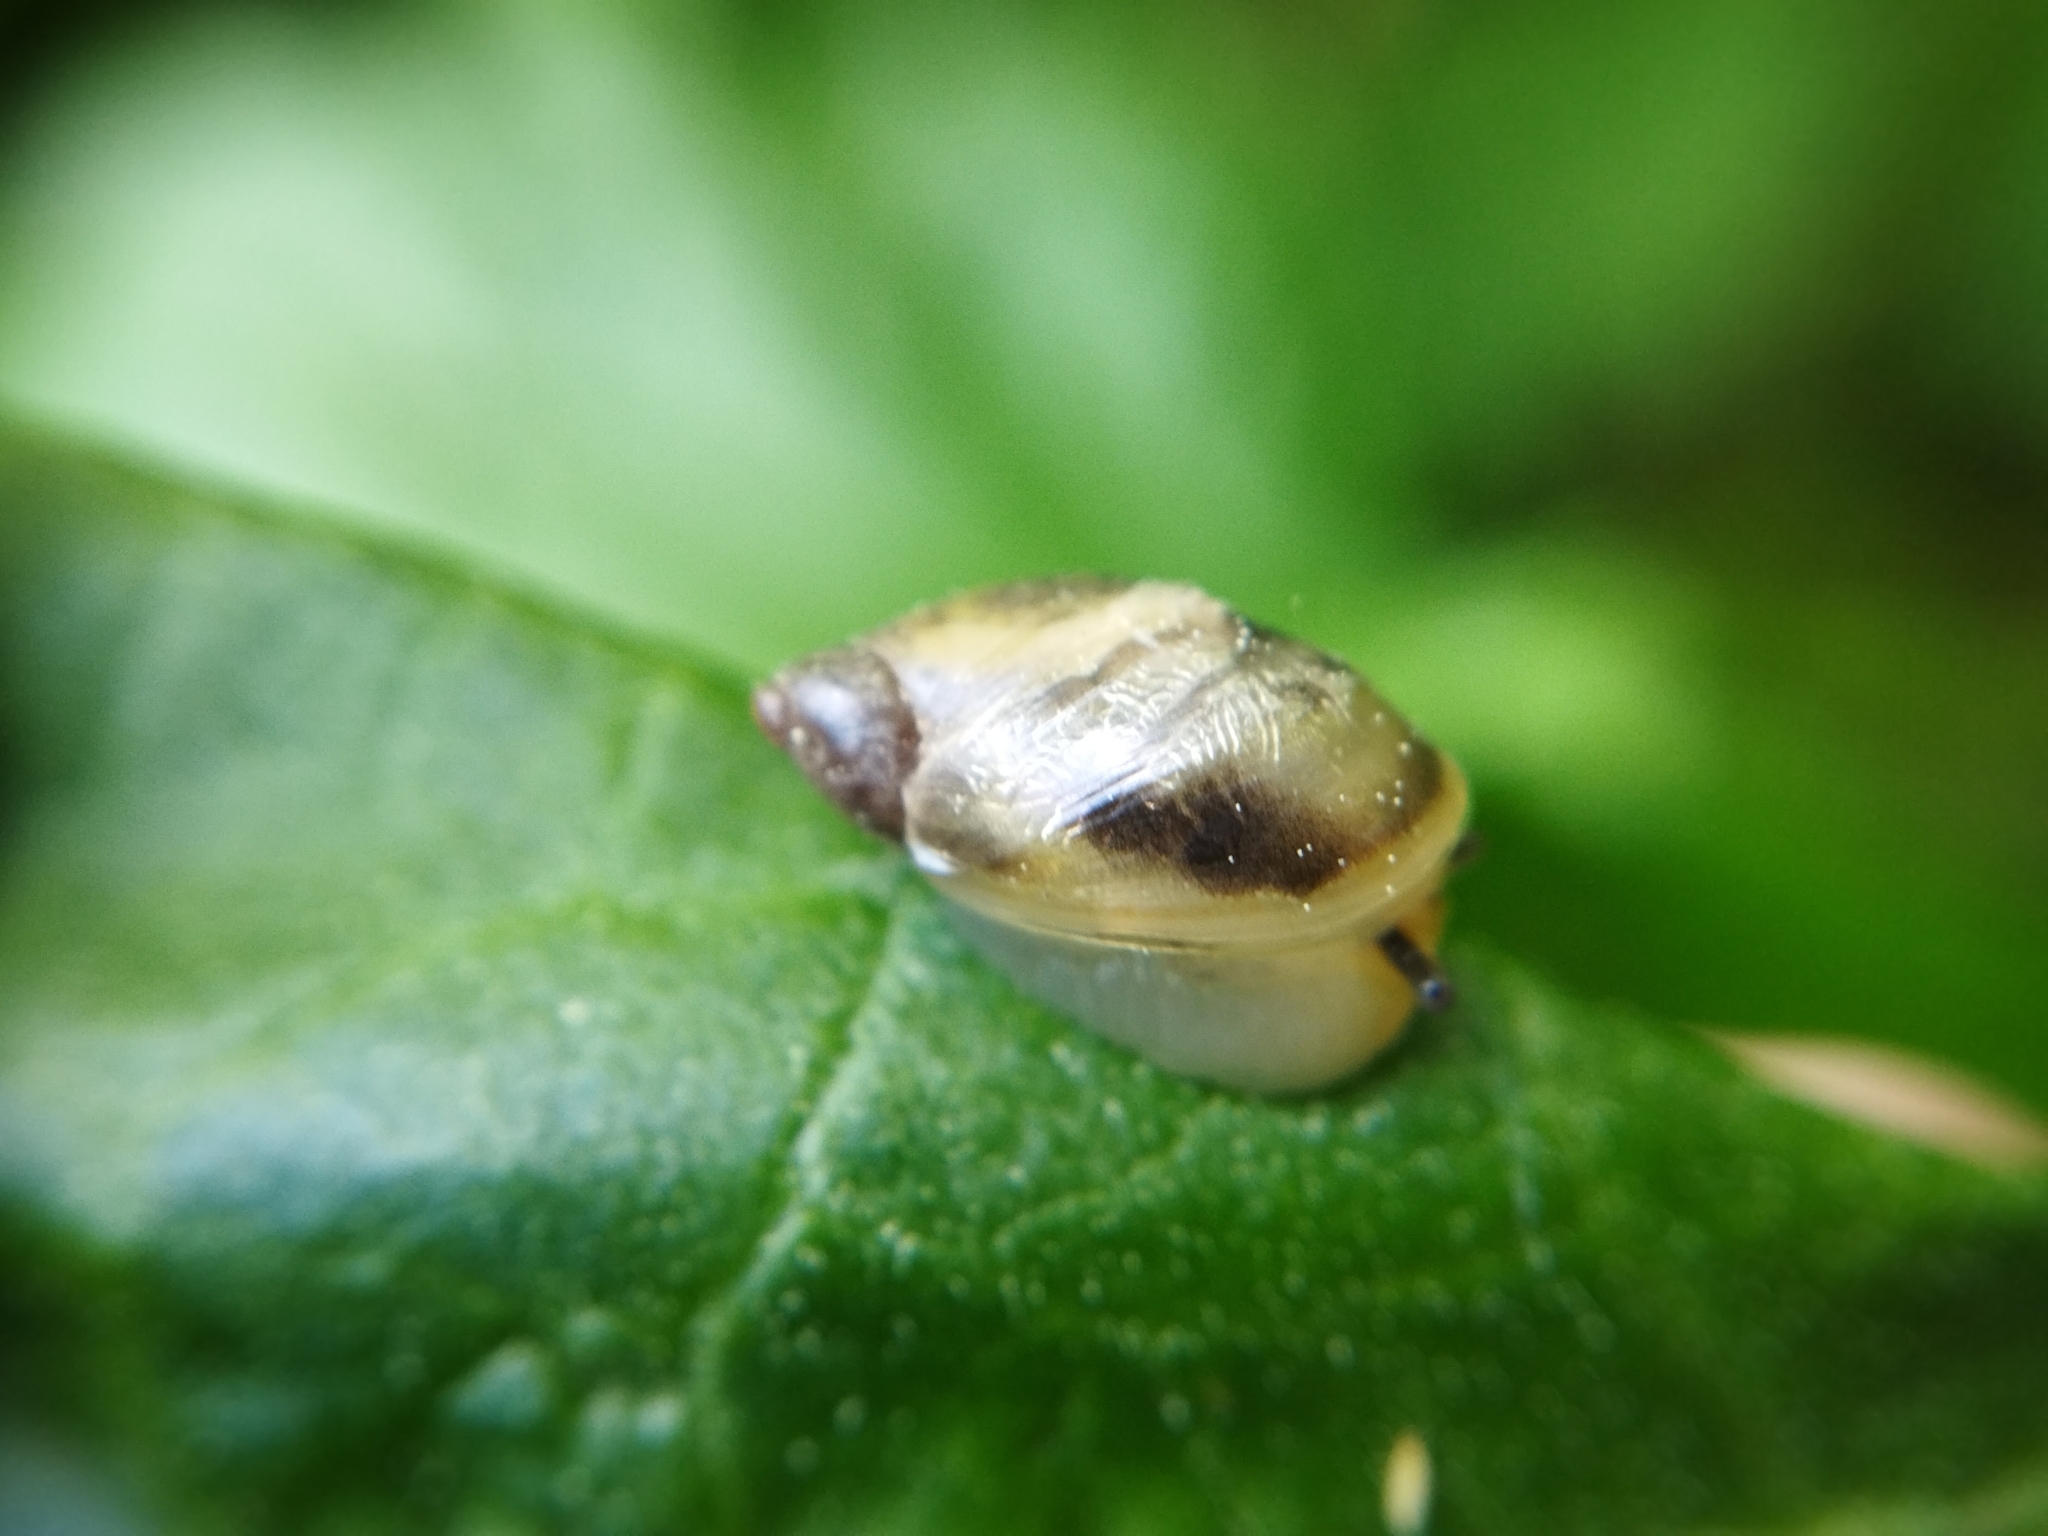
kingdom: Animalia
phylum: Mollusca
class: Gastropoda
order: Stylommatophora
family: Succineidae
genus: Succinea
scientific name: Succinea putris
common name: European ambersnail
